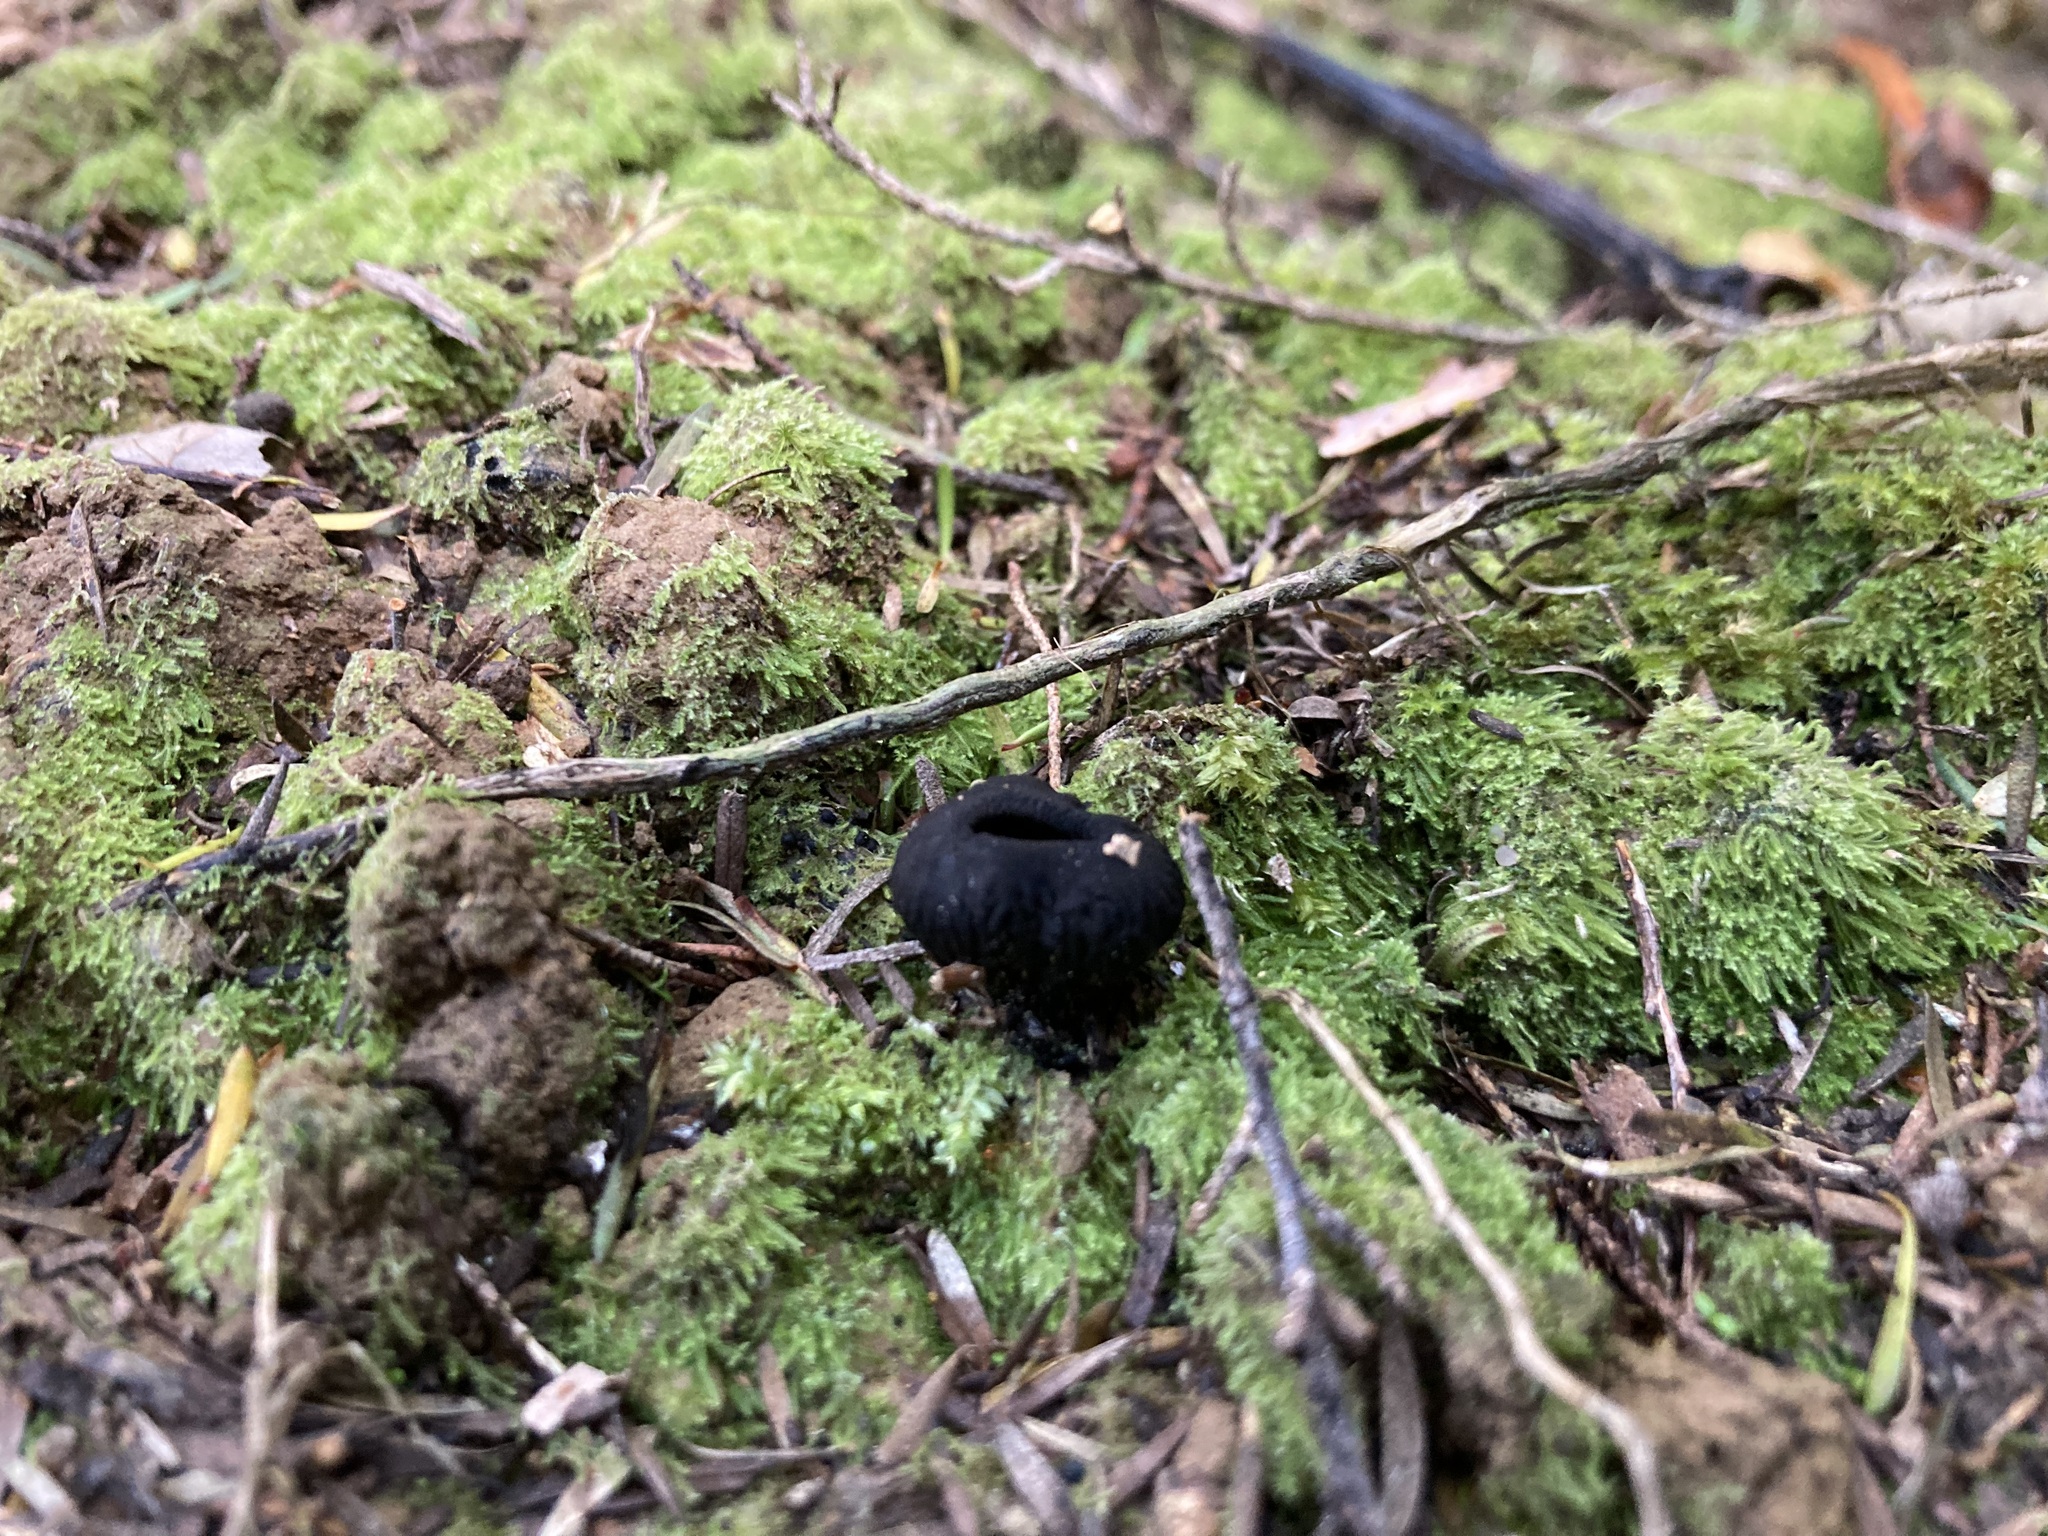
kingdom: Fungi
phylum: Ascomycota
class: Pezizomycetes
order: Pezizales
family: Sarcosomataceae
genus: Plectania
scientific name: Plectania rhytidia
